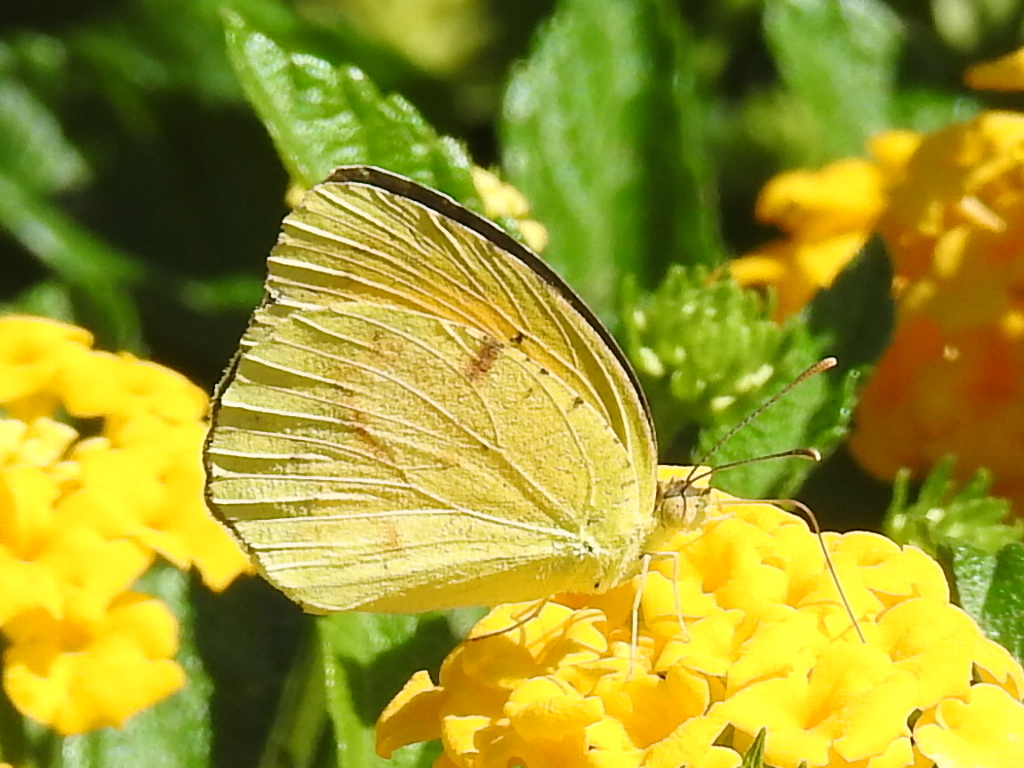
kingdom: Animalia
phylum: Arthropoda
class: Insecta
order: Lepidoptera
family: Pieridae
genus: Abaeis
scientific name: Abaeis nicippe
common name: Sleepy orange
